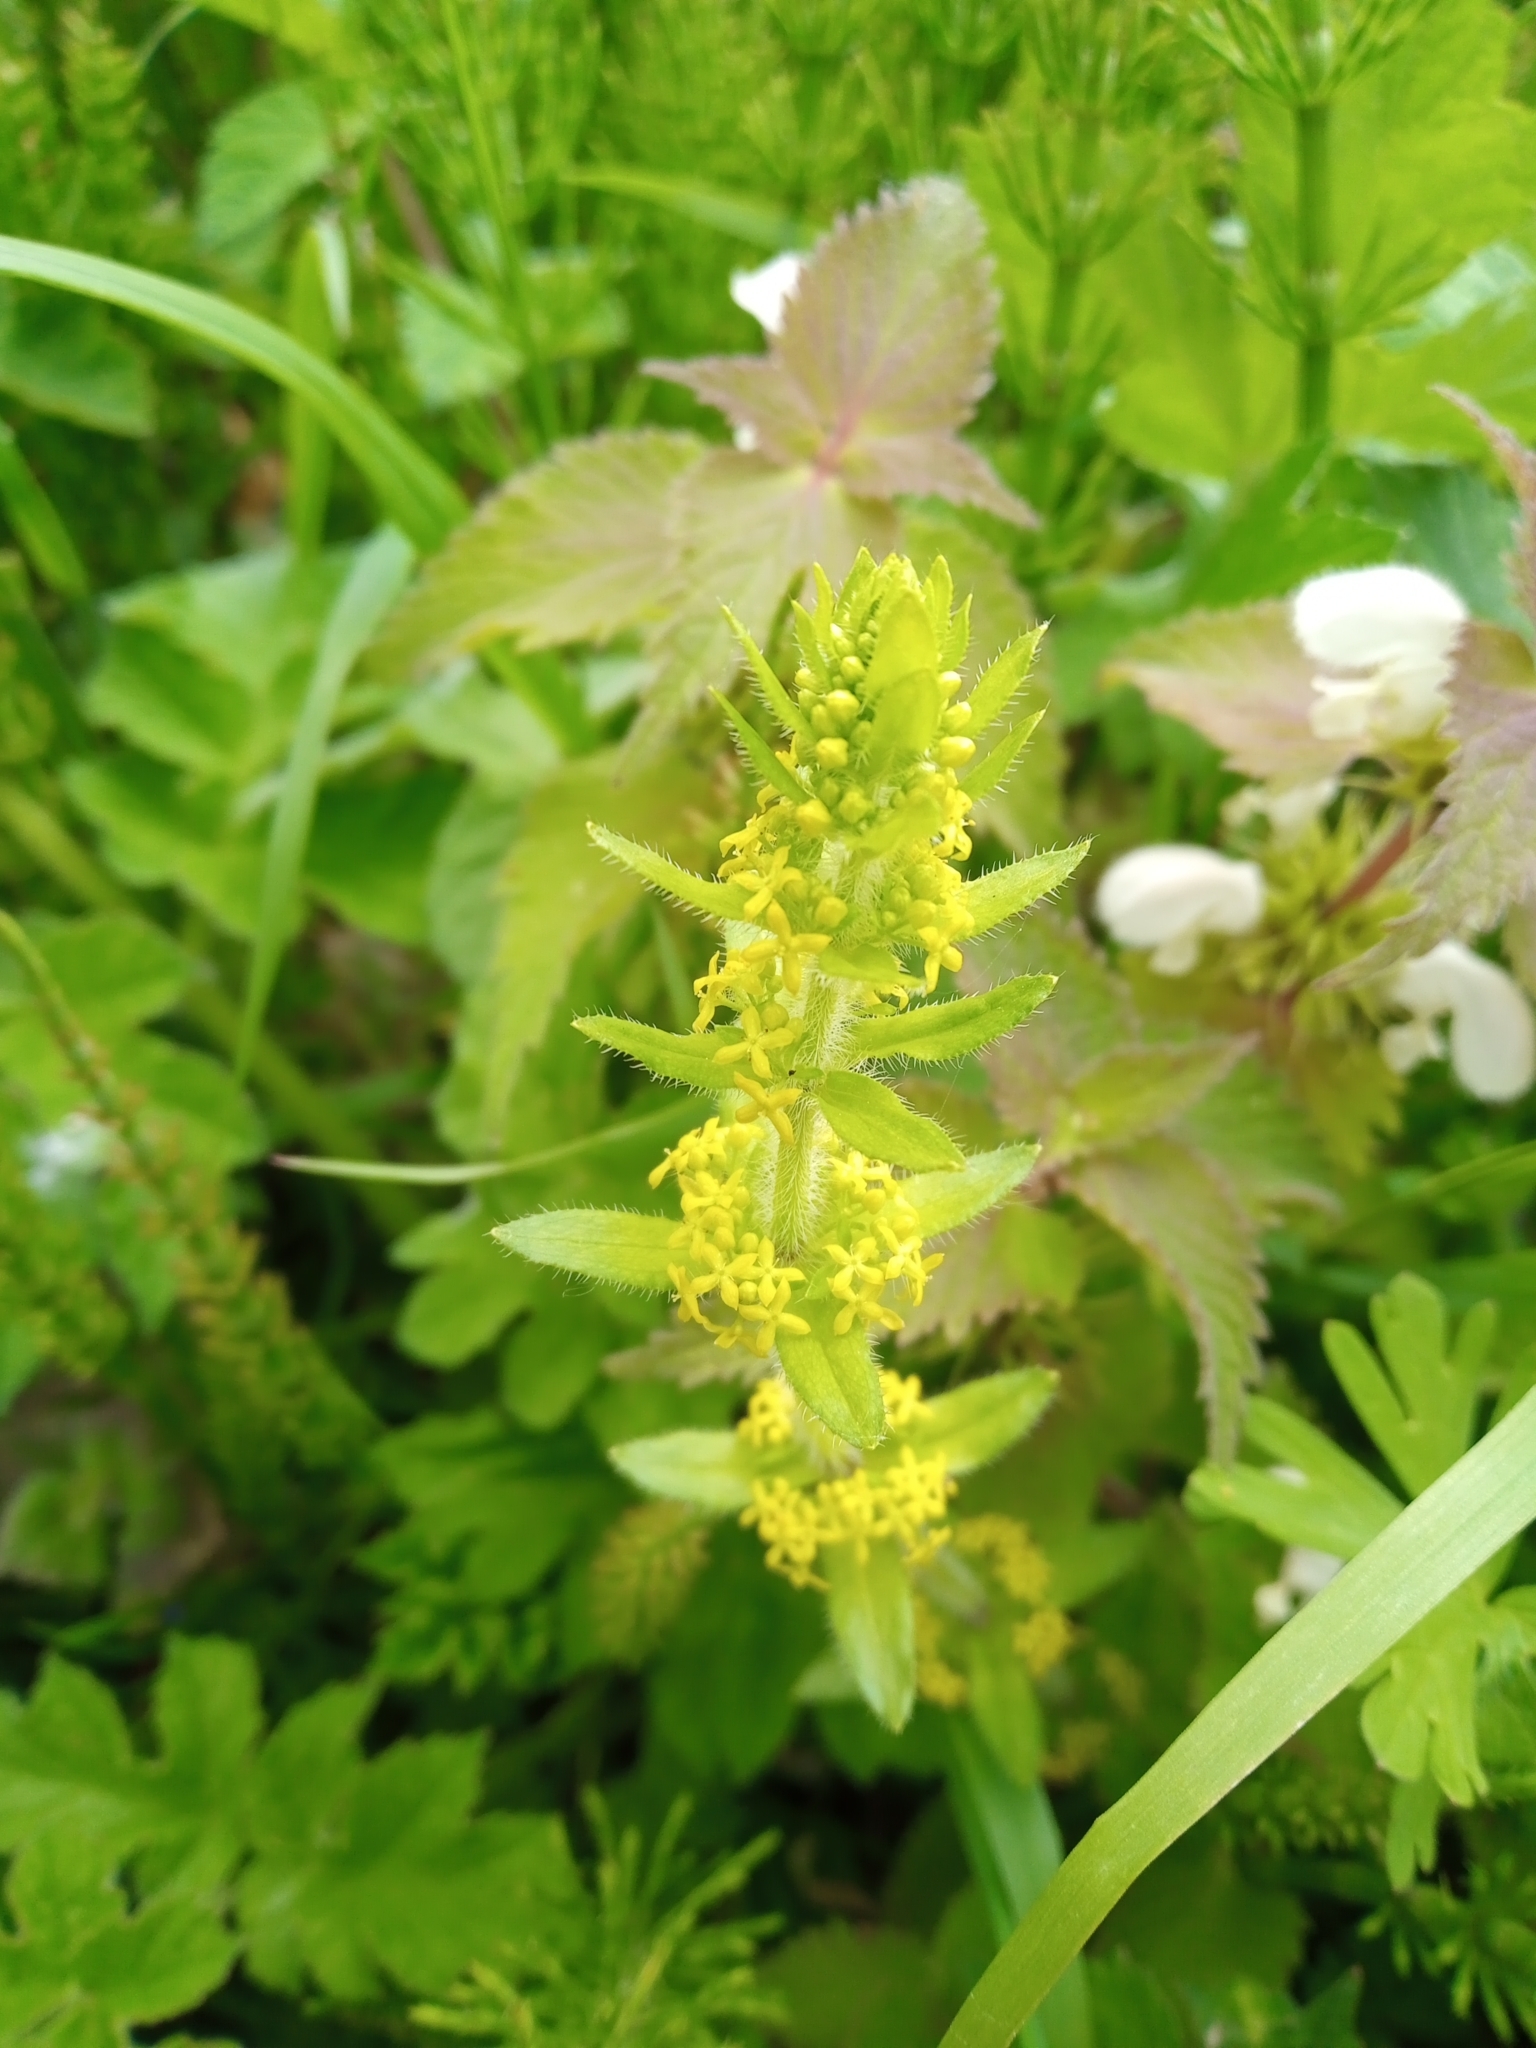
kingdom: Plantae
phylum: Tracheophyta
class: Magnoliopsida
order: Gentianales
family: Rubiaceae
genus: Cruciata
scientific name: Cruciata laevipes
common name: Crosswort
